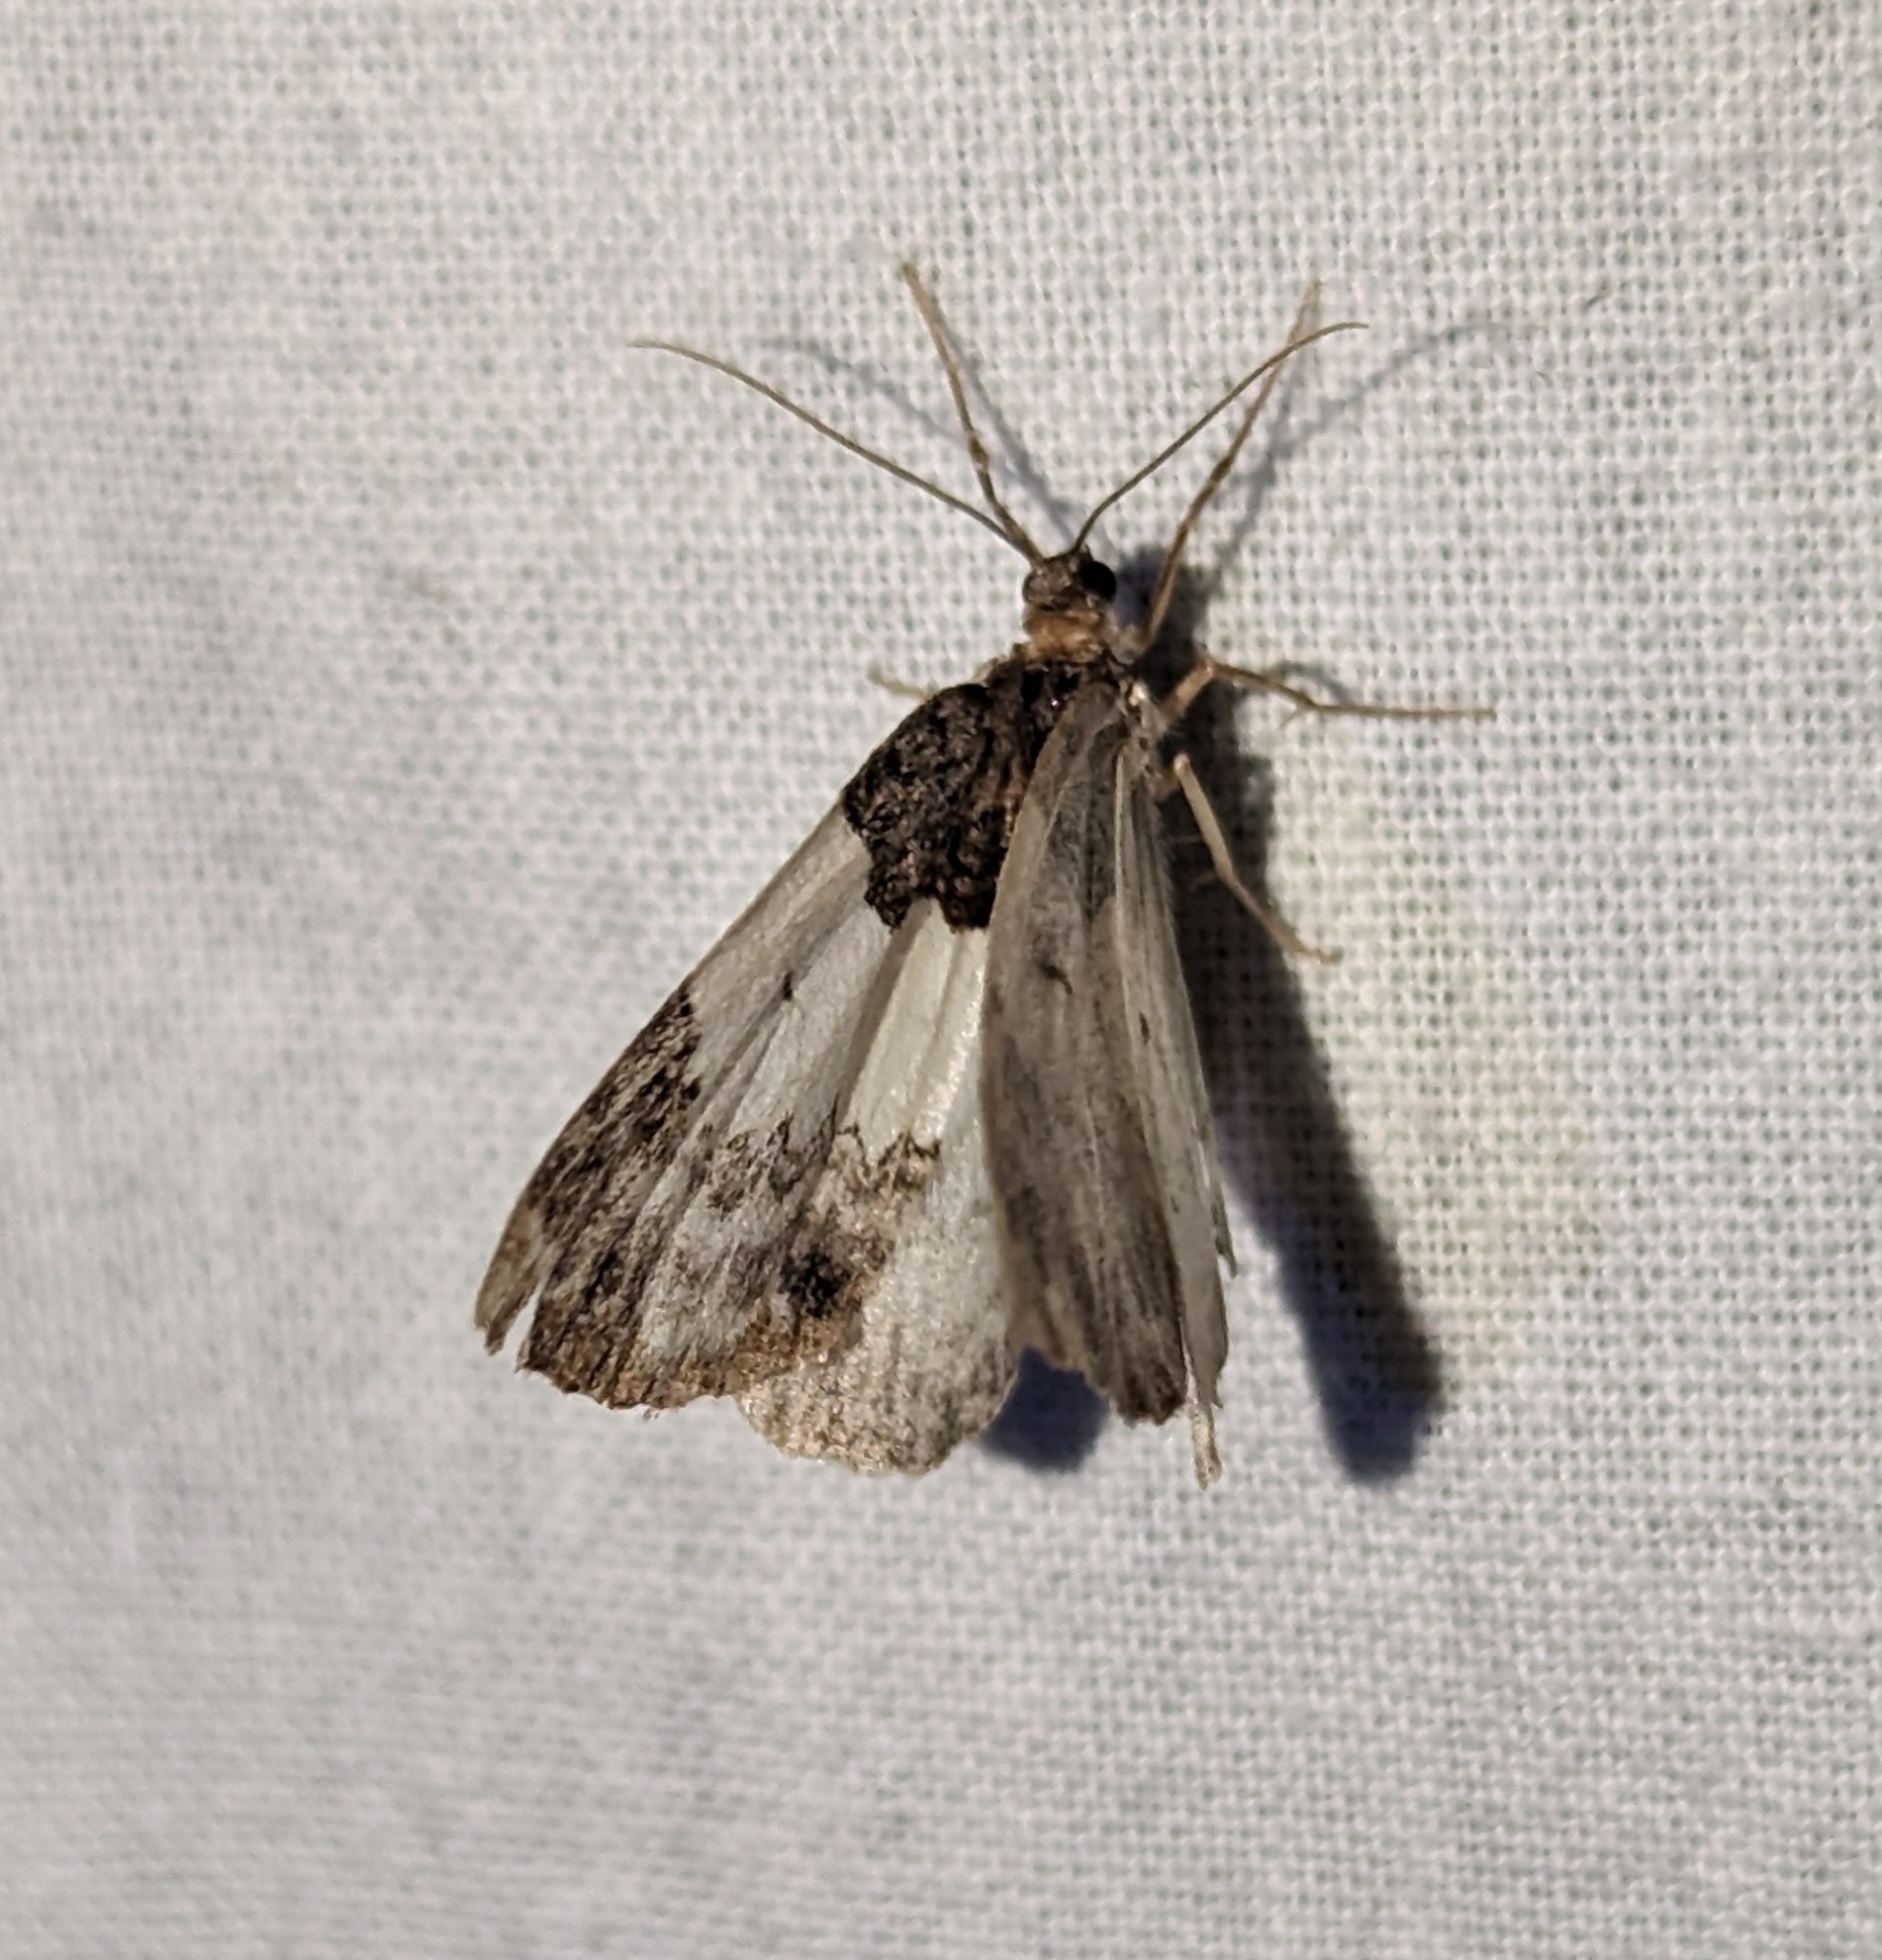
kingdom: Animalia
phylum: Arthropoda
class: Insecta
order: Lepidoptera
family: Geometridae
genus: Mesoleuca
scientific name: Mesoleuca ruficillata
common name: White-ribboned carpet moth
